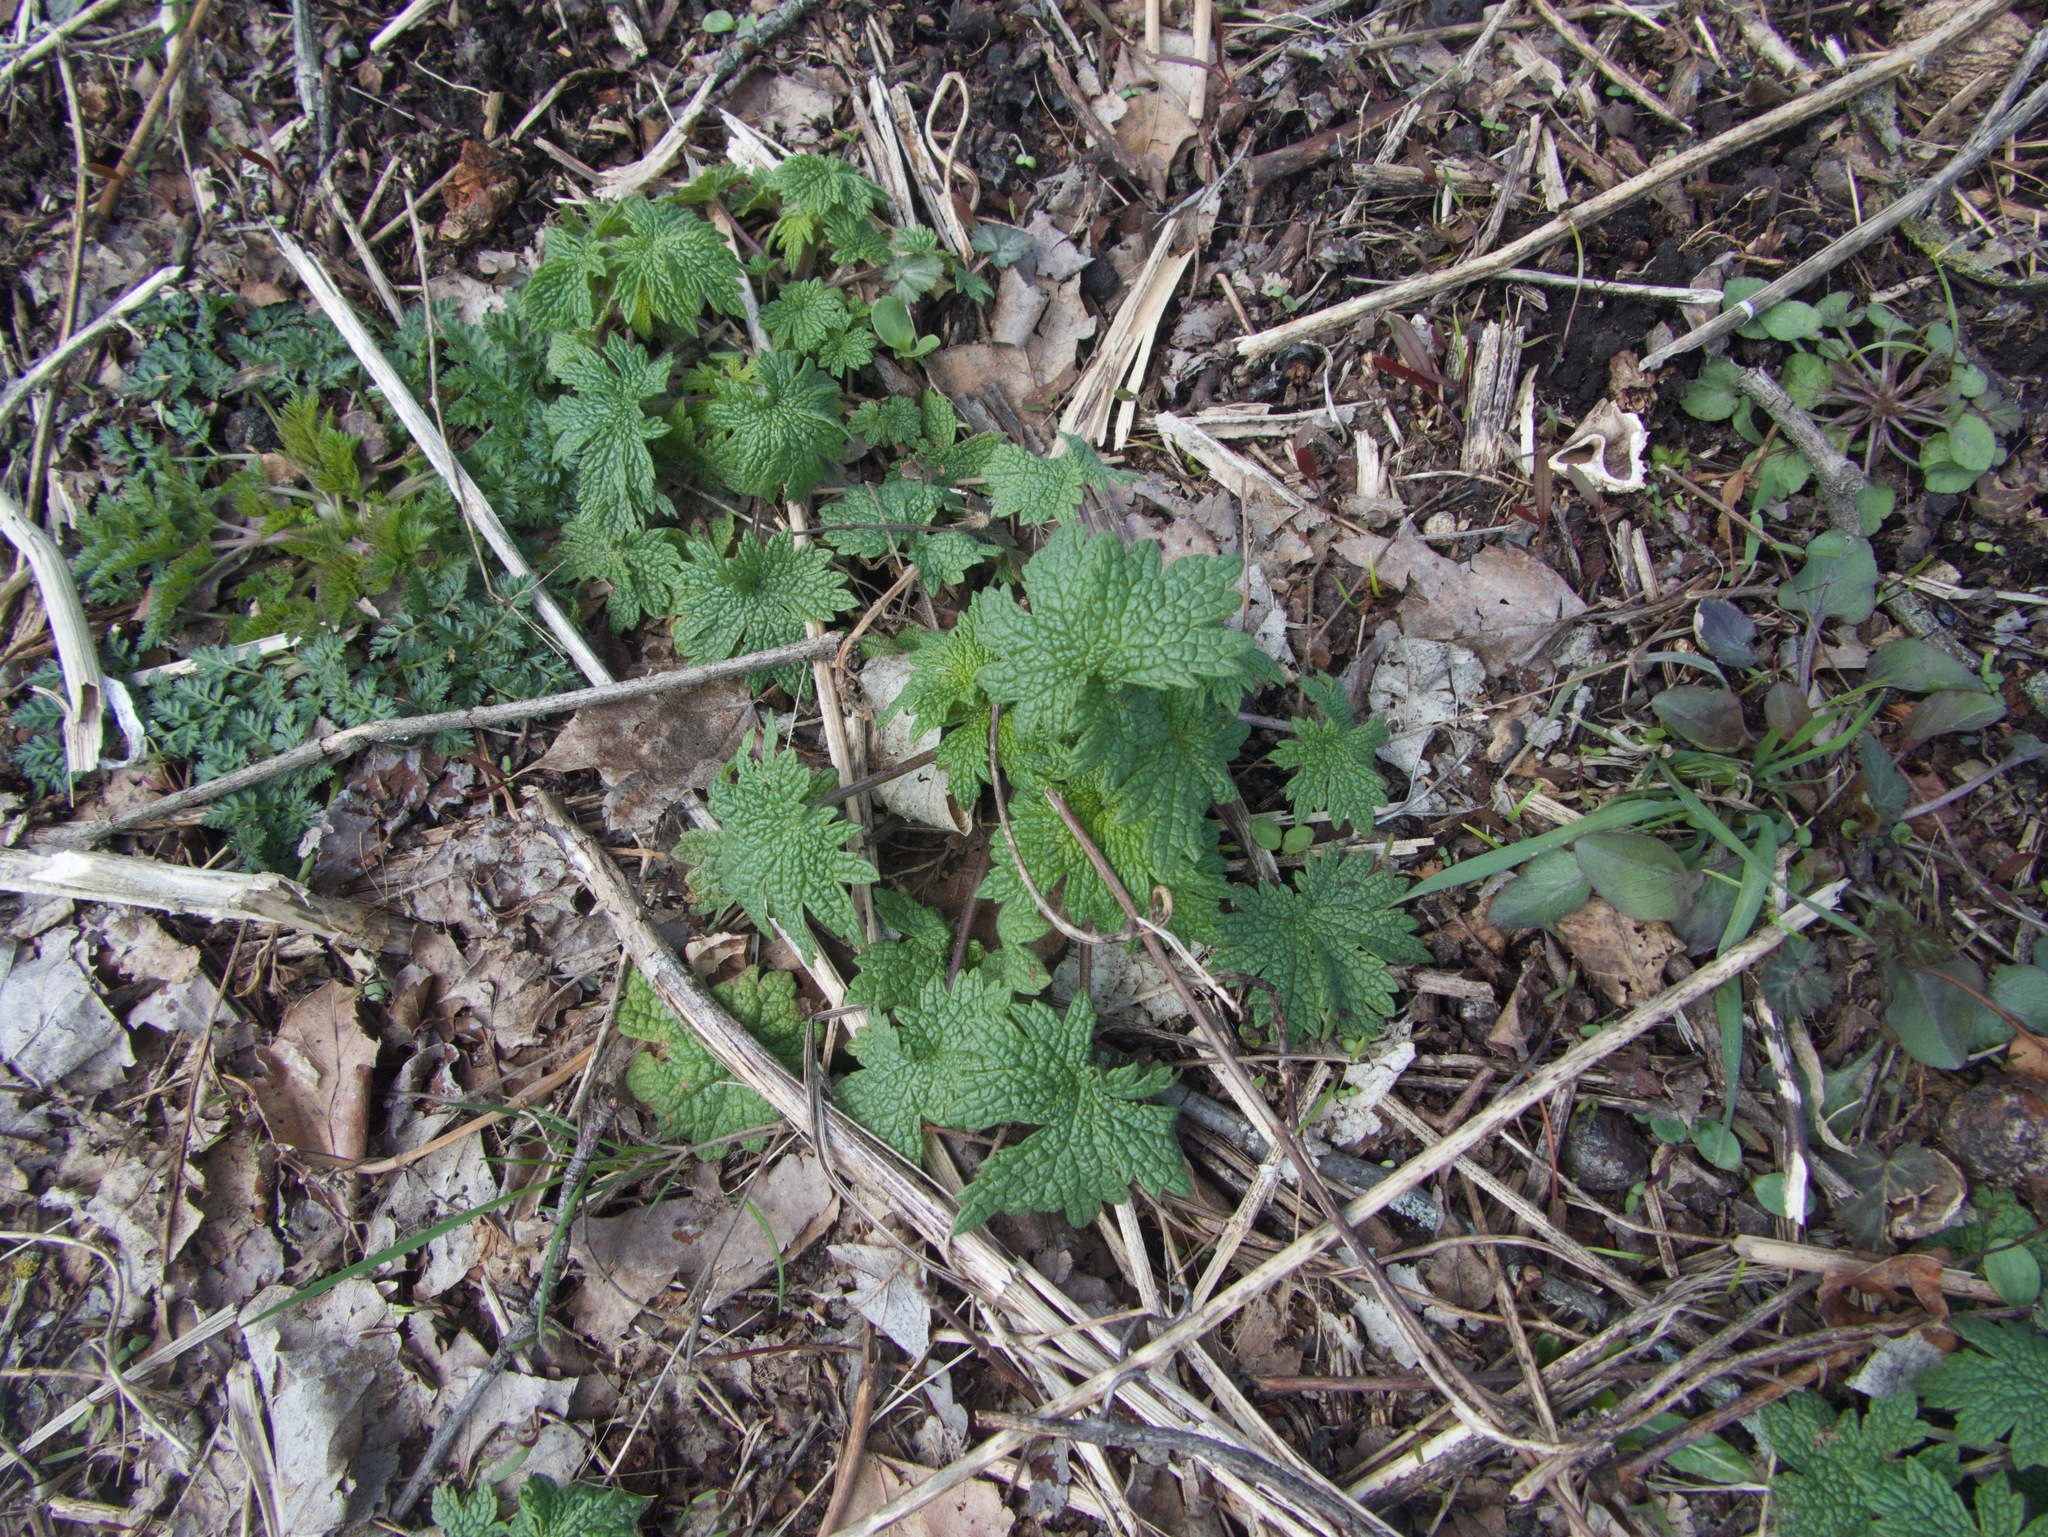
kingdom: Plantae
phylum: Tracheophyta
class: Magnoliopsida
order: Lamiales
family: Lamiaceae
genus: Leonurus
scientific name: Leonurus cardiaca
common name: Motherwort
